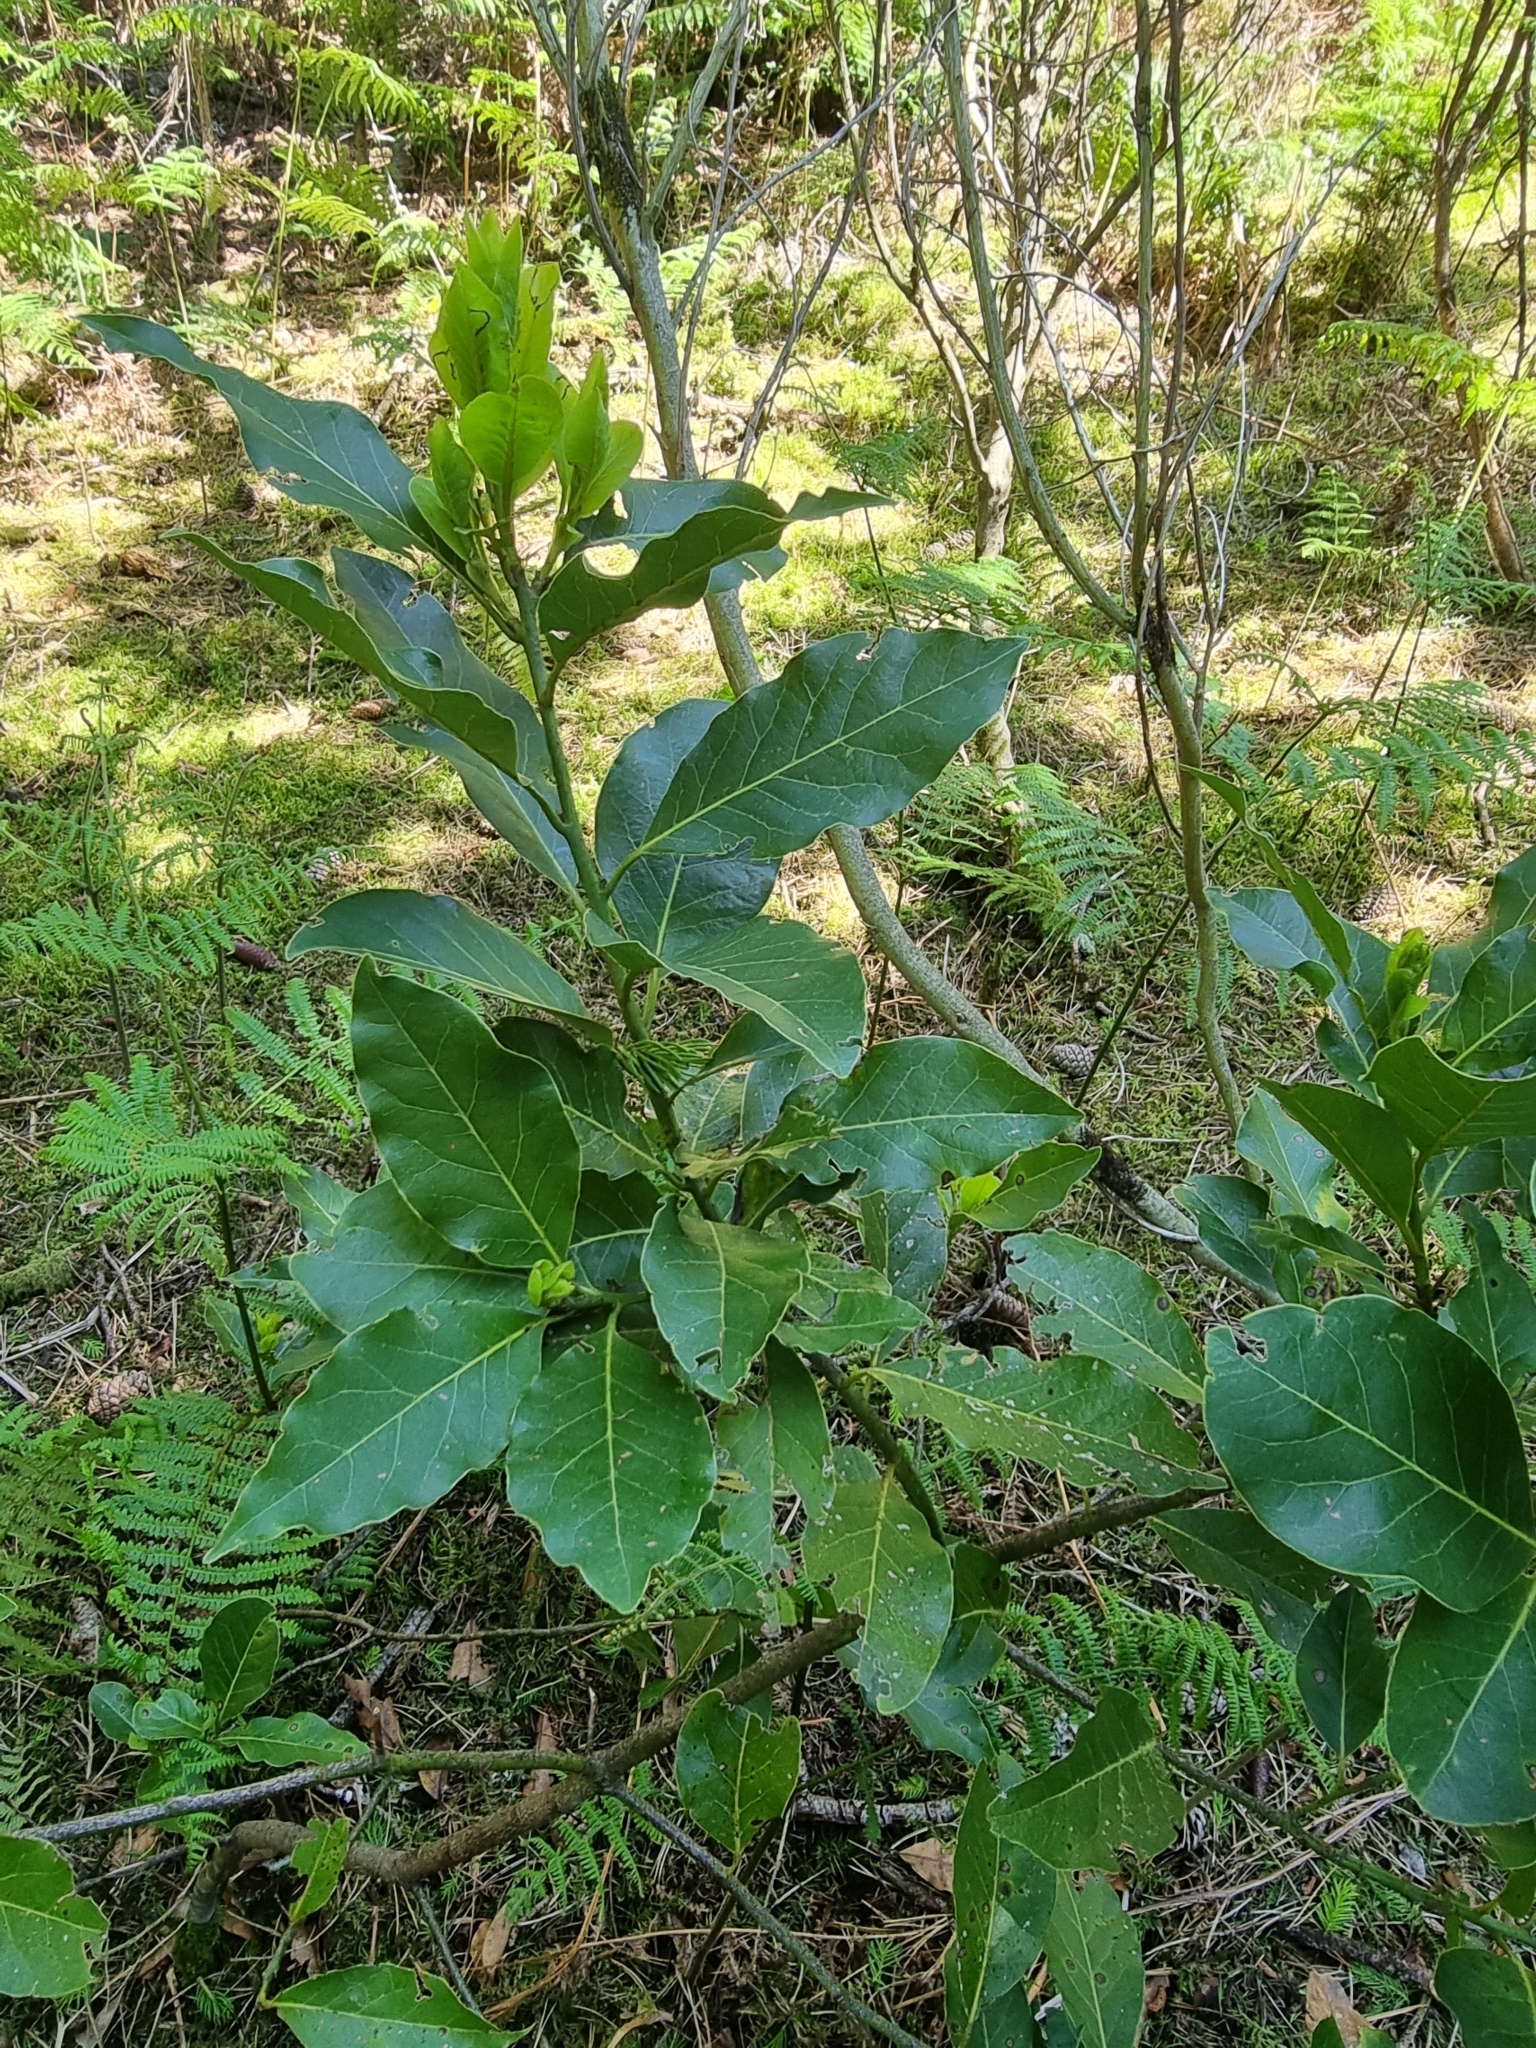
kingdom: Plantae
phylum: Tracheophyta
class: Magnoliopsida
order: Laurales
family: Lauraceae
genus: Laurus
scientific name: Laurus novocanariensis
